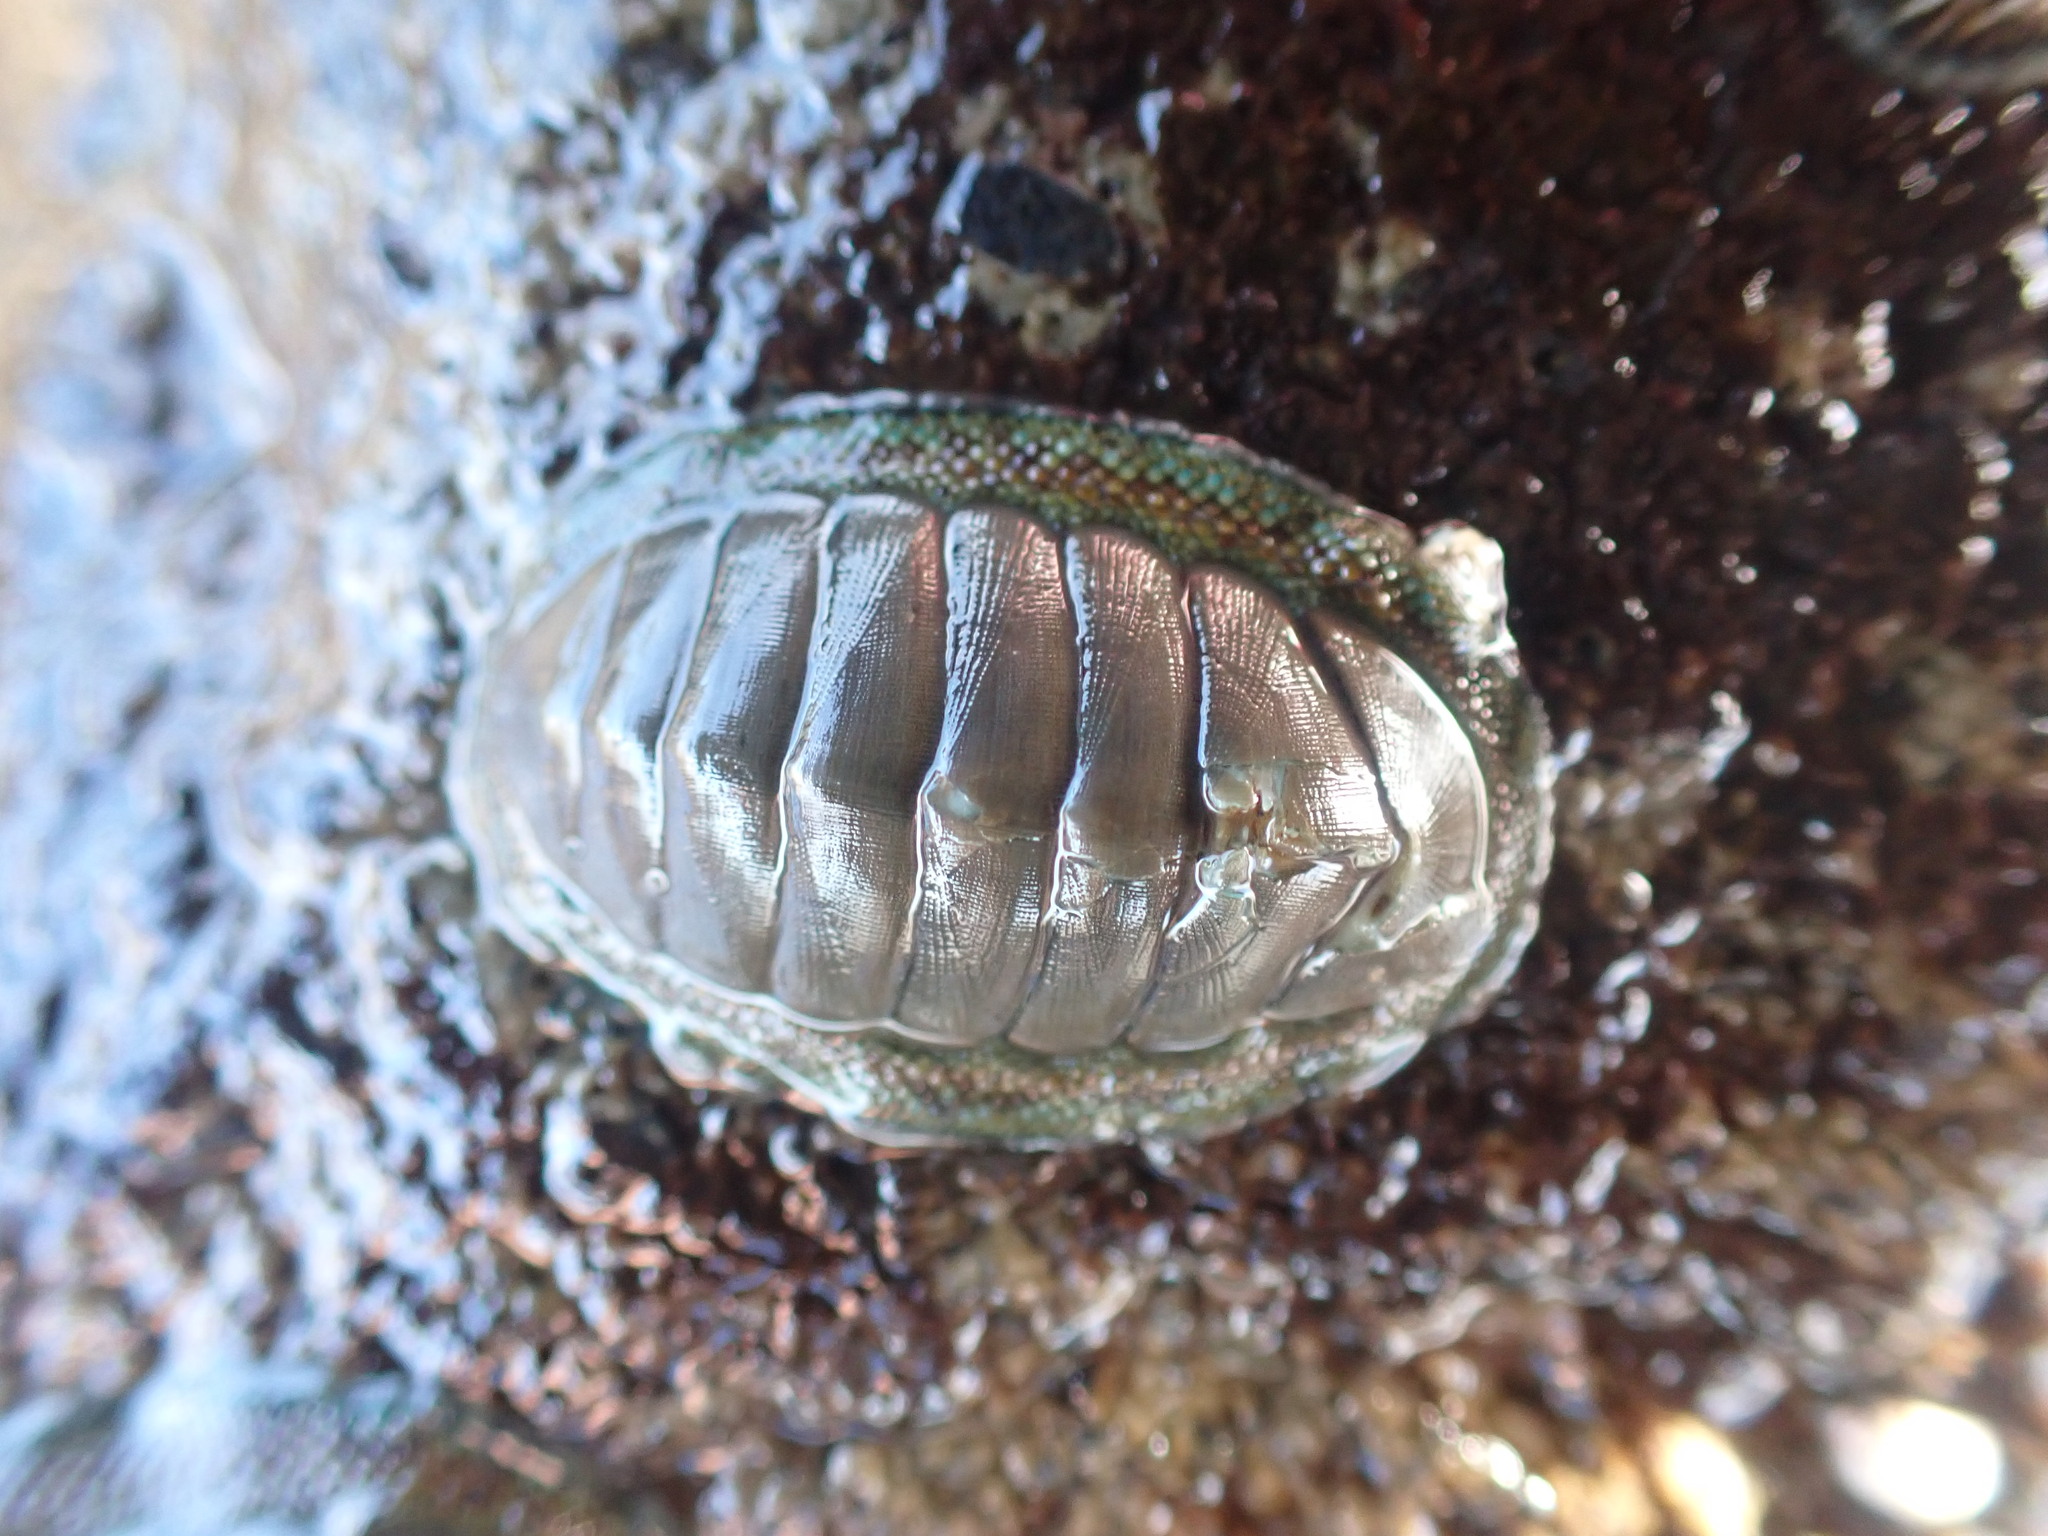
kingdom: Animalia
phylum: Mollusca
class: Polyplacophora
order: Chitonida
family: Chitonidae
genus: Chiton
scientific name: Chiton glaucus
